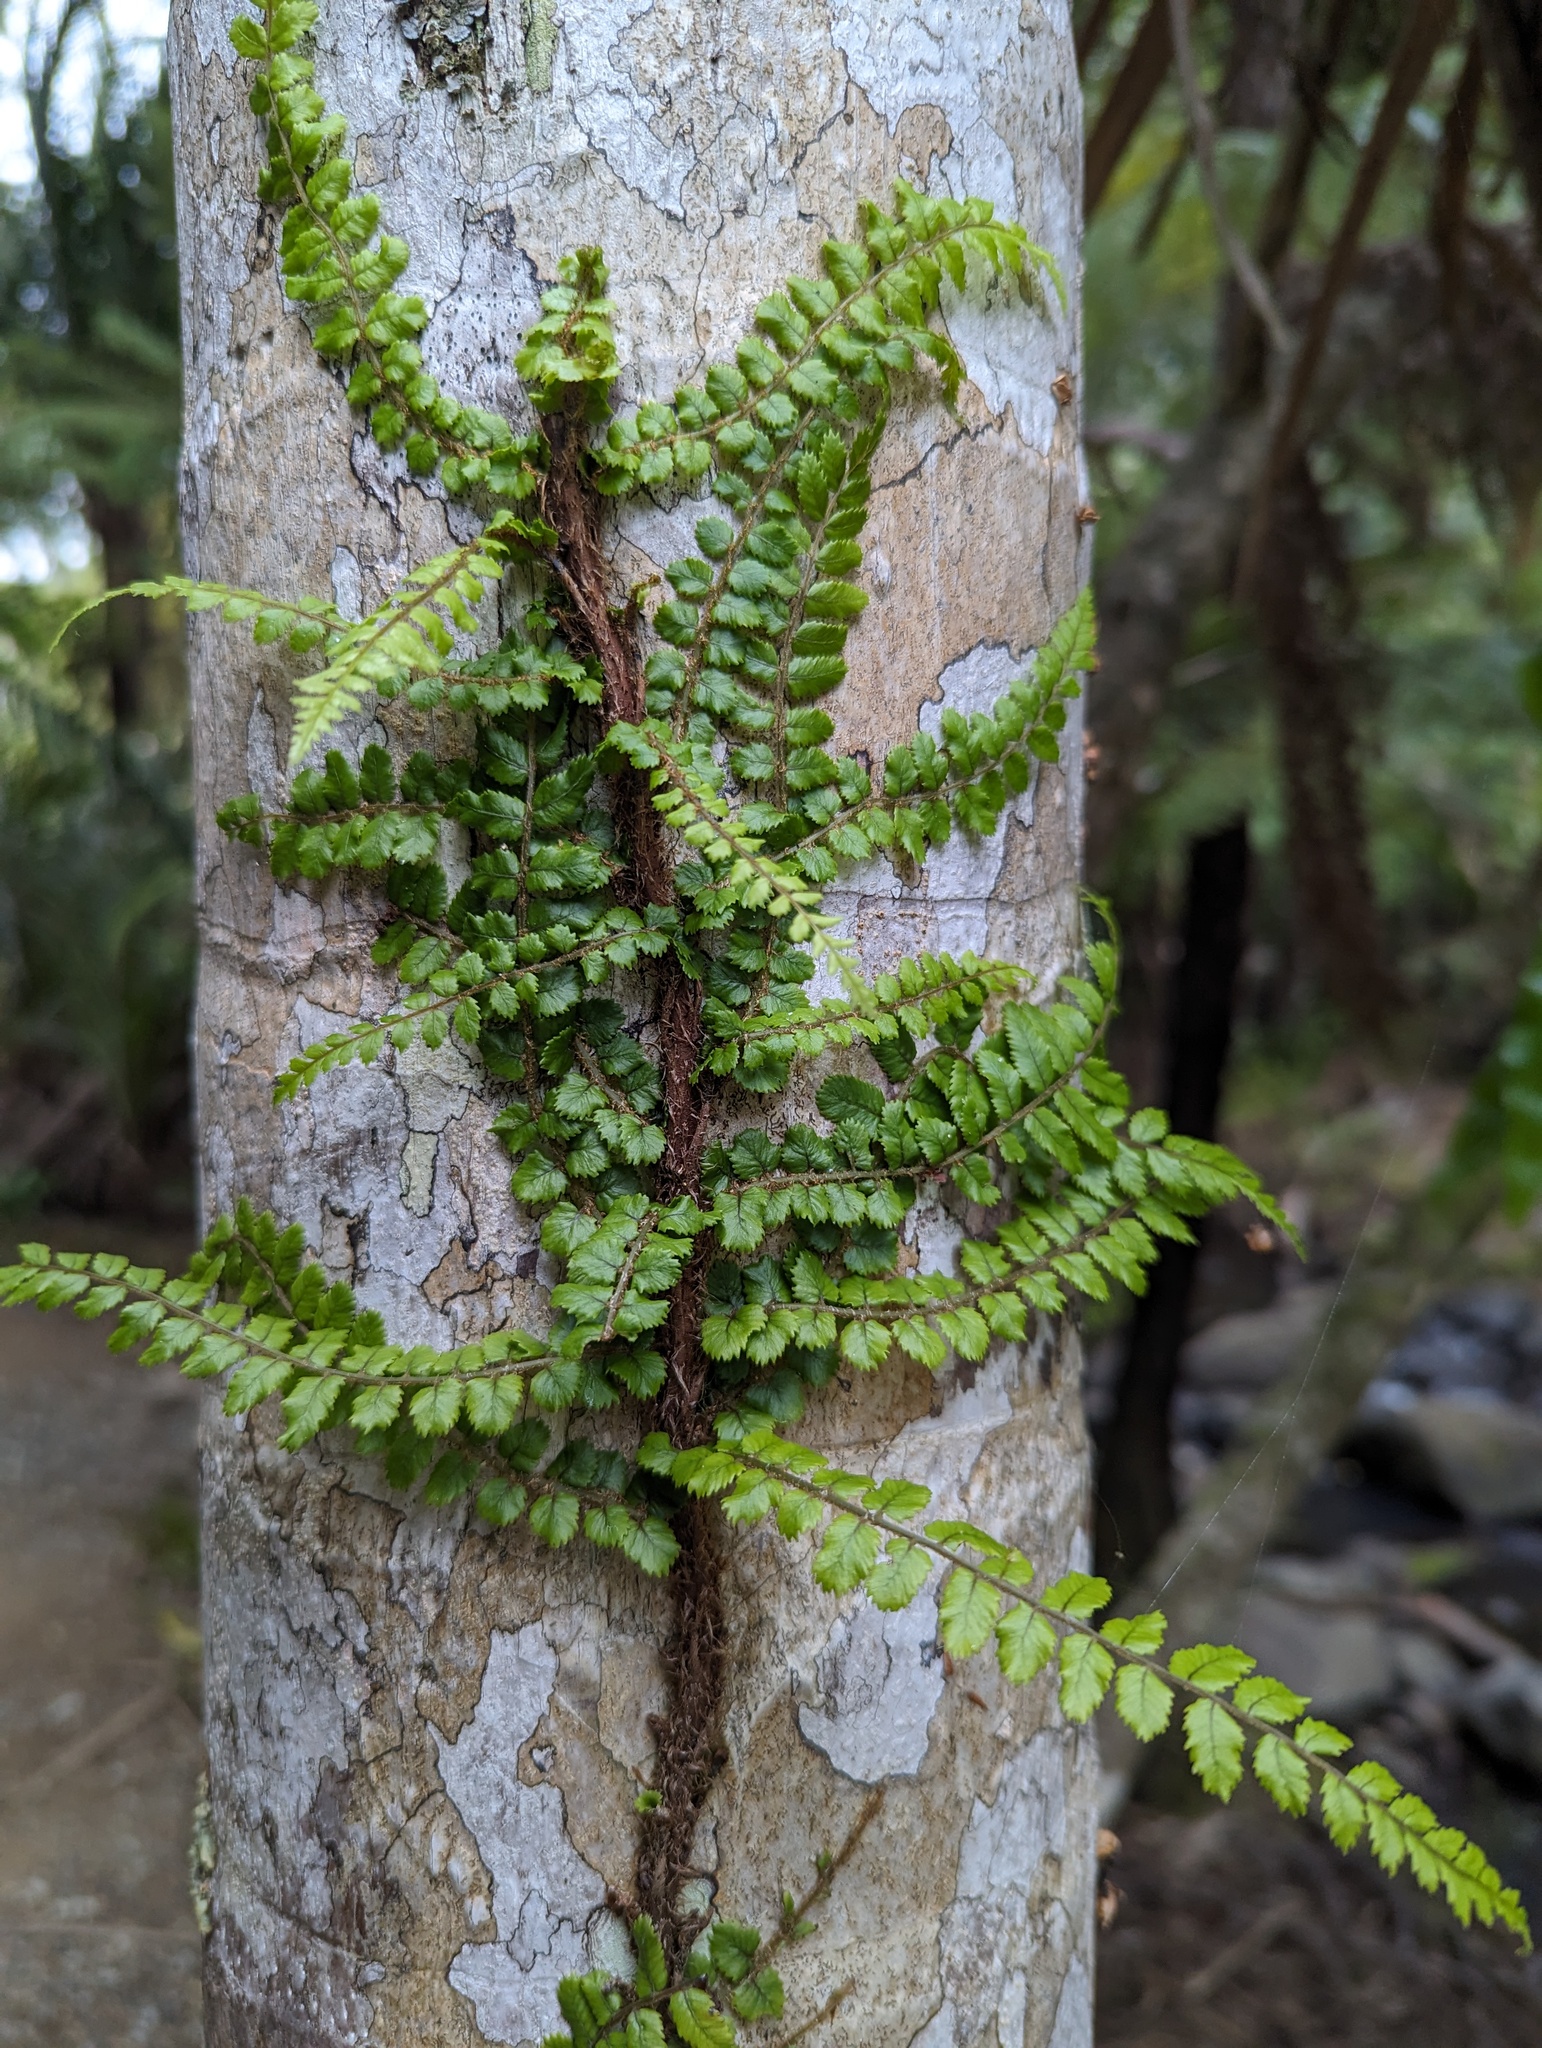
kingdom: Plantae
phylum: Tracheophyta
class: Polypodiopsida
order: Polypodiales
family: Blechnaceae
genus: Icarus
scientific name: Icarus filiformis
